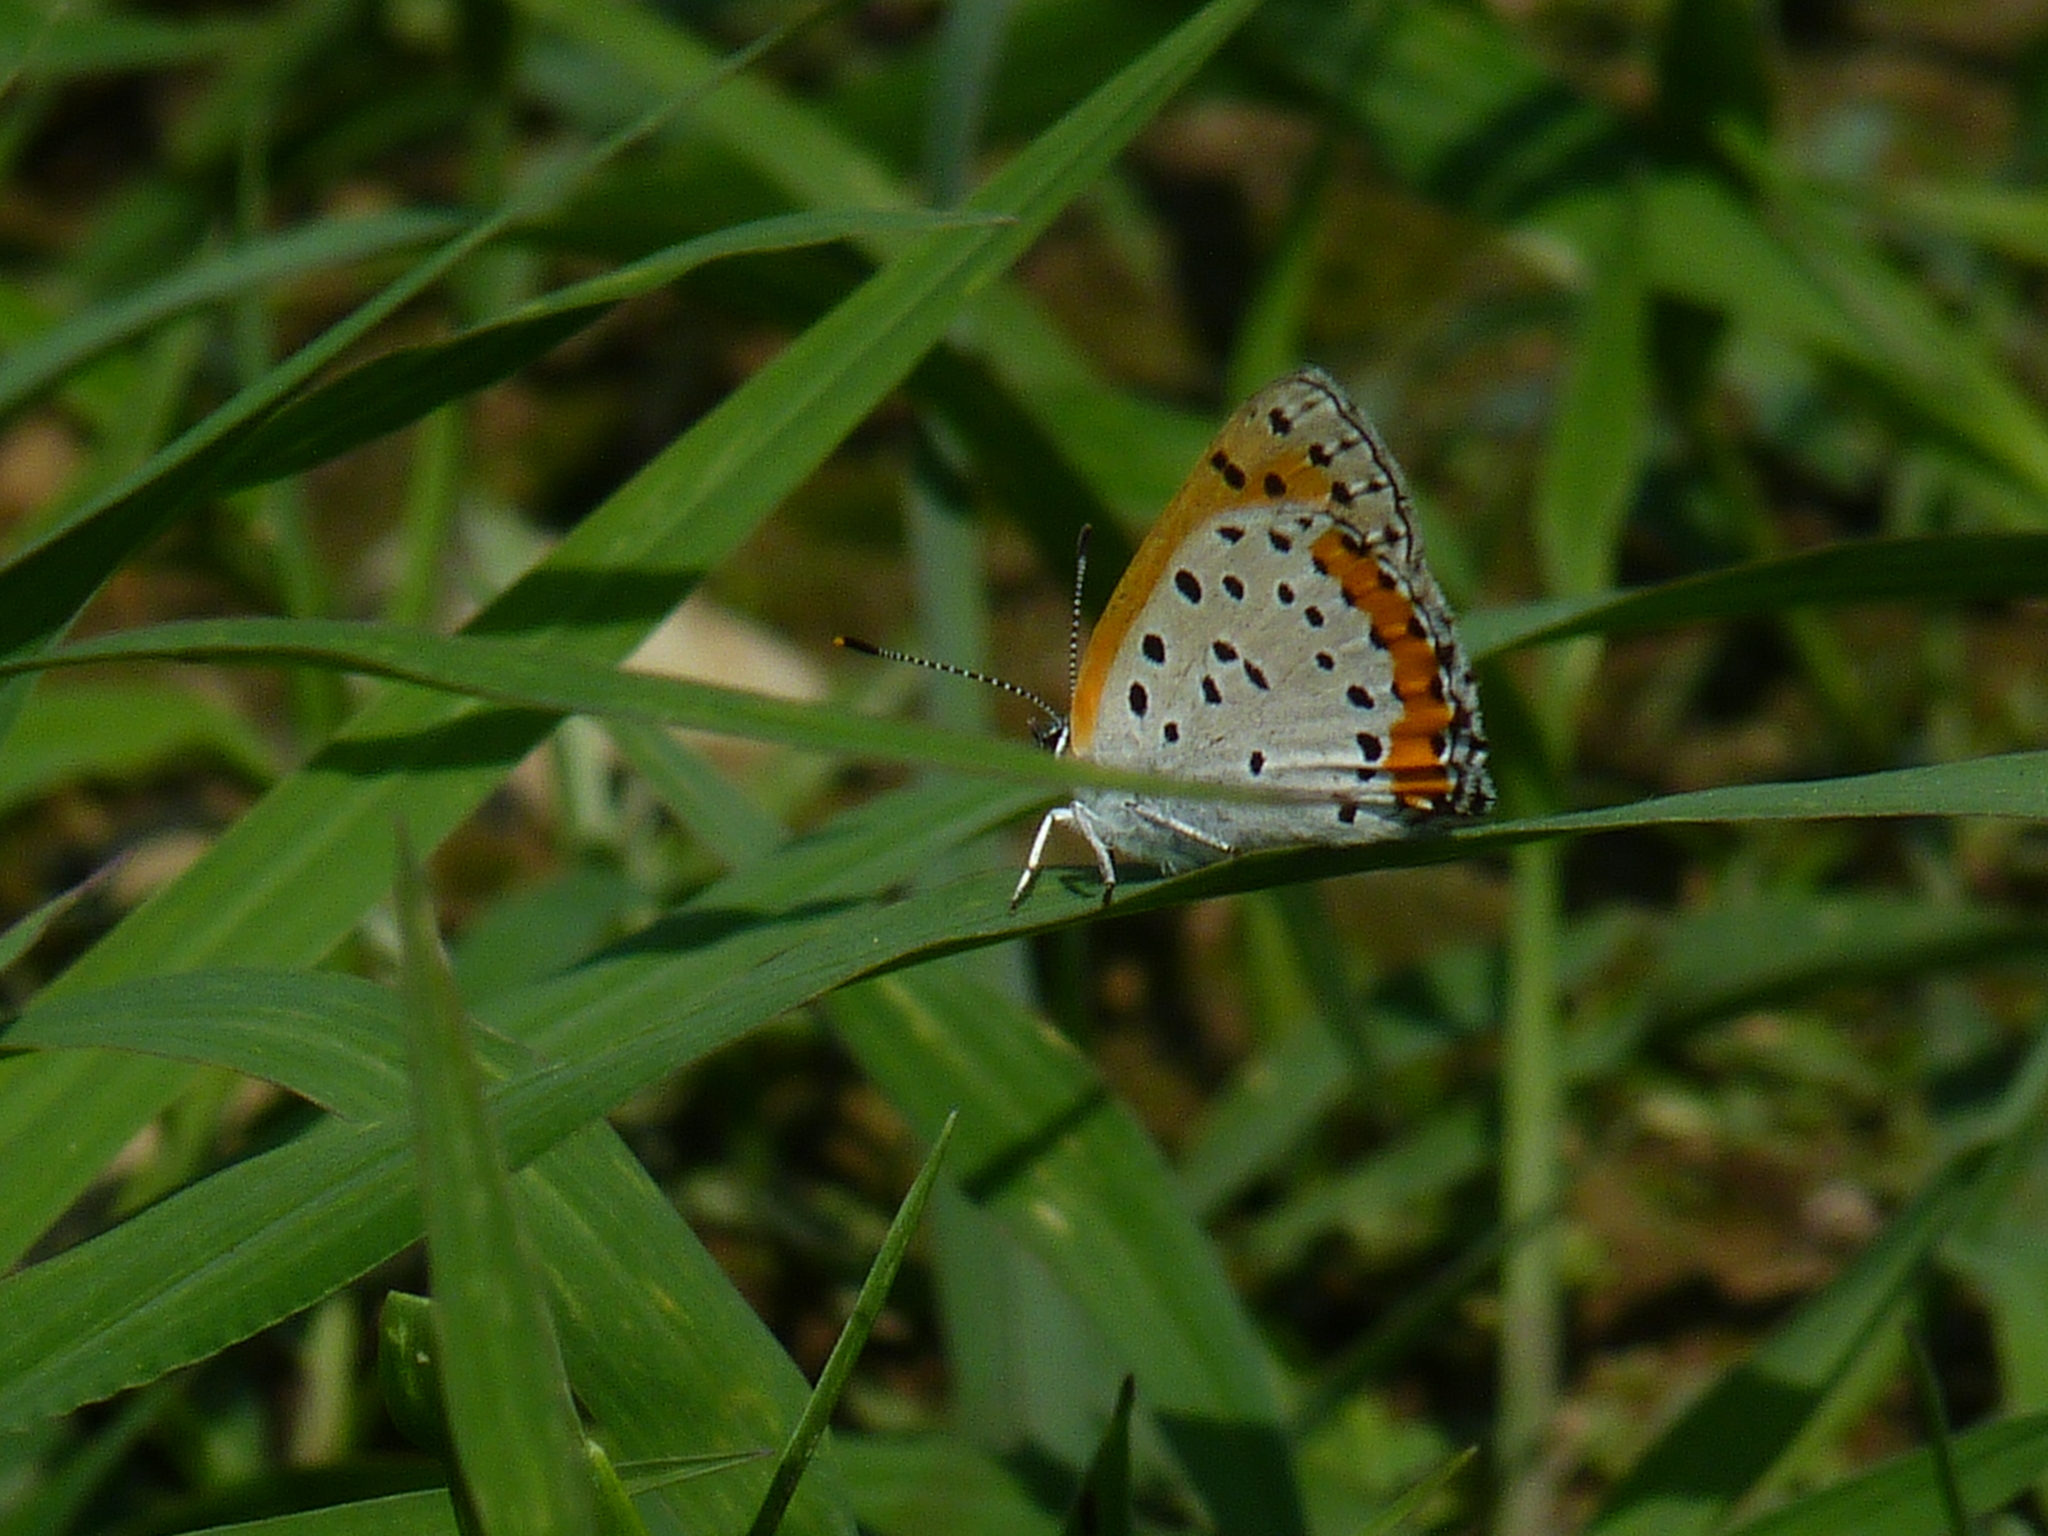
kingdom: Animalia
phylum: Arthropoda
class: Insecta
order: Lepidoptera
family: Lycaenidae
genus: Tharsalea
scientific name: Tharsalea hyllus
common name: Bronze copper
